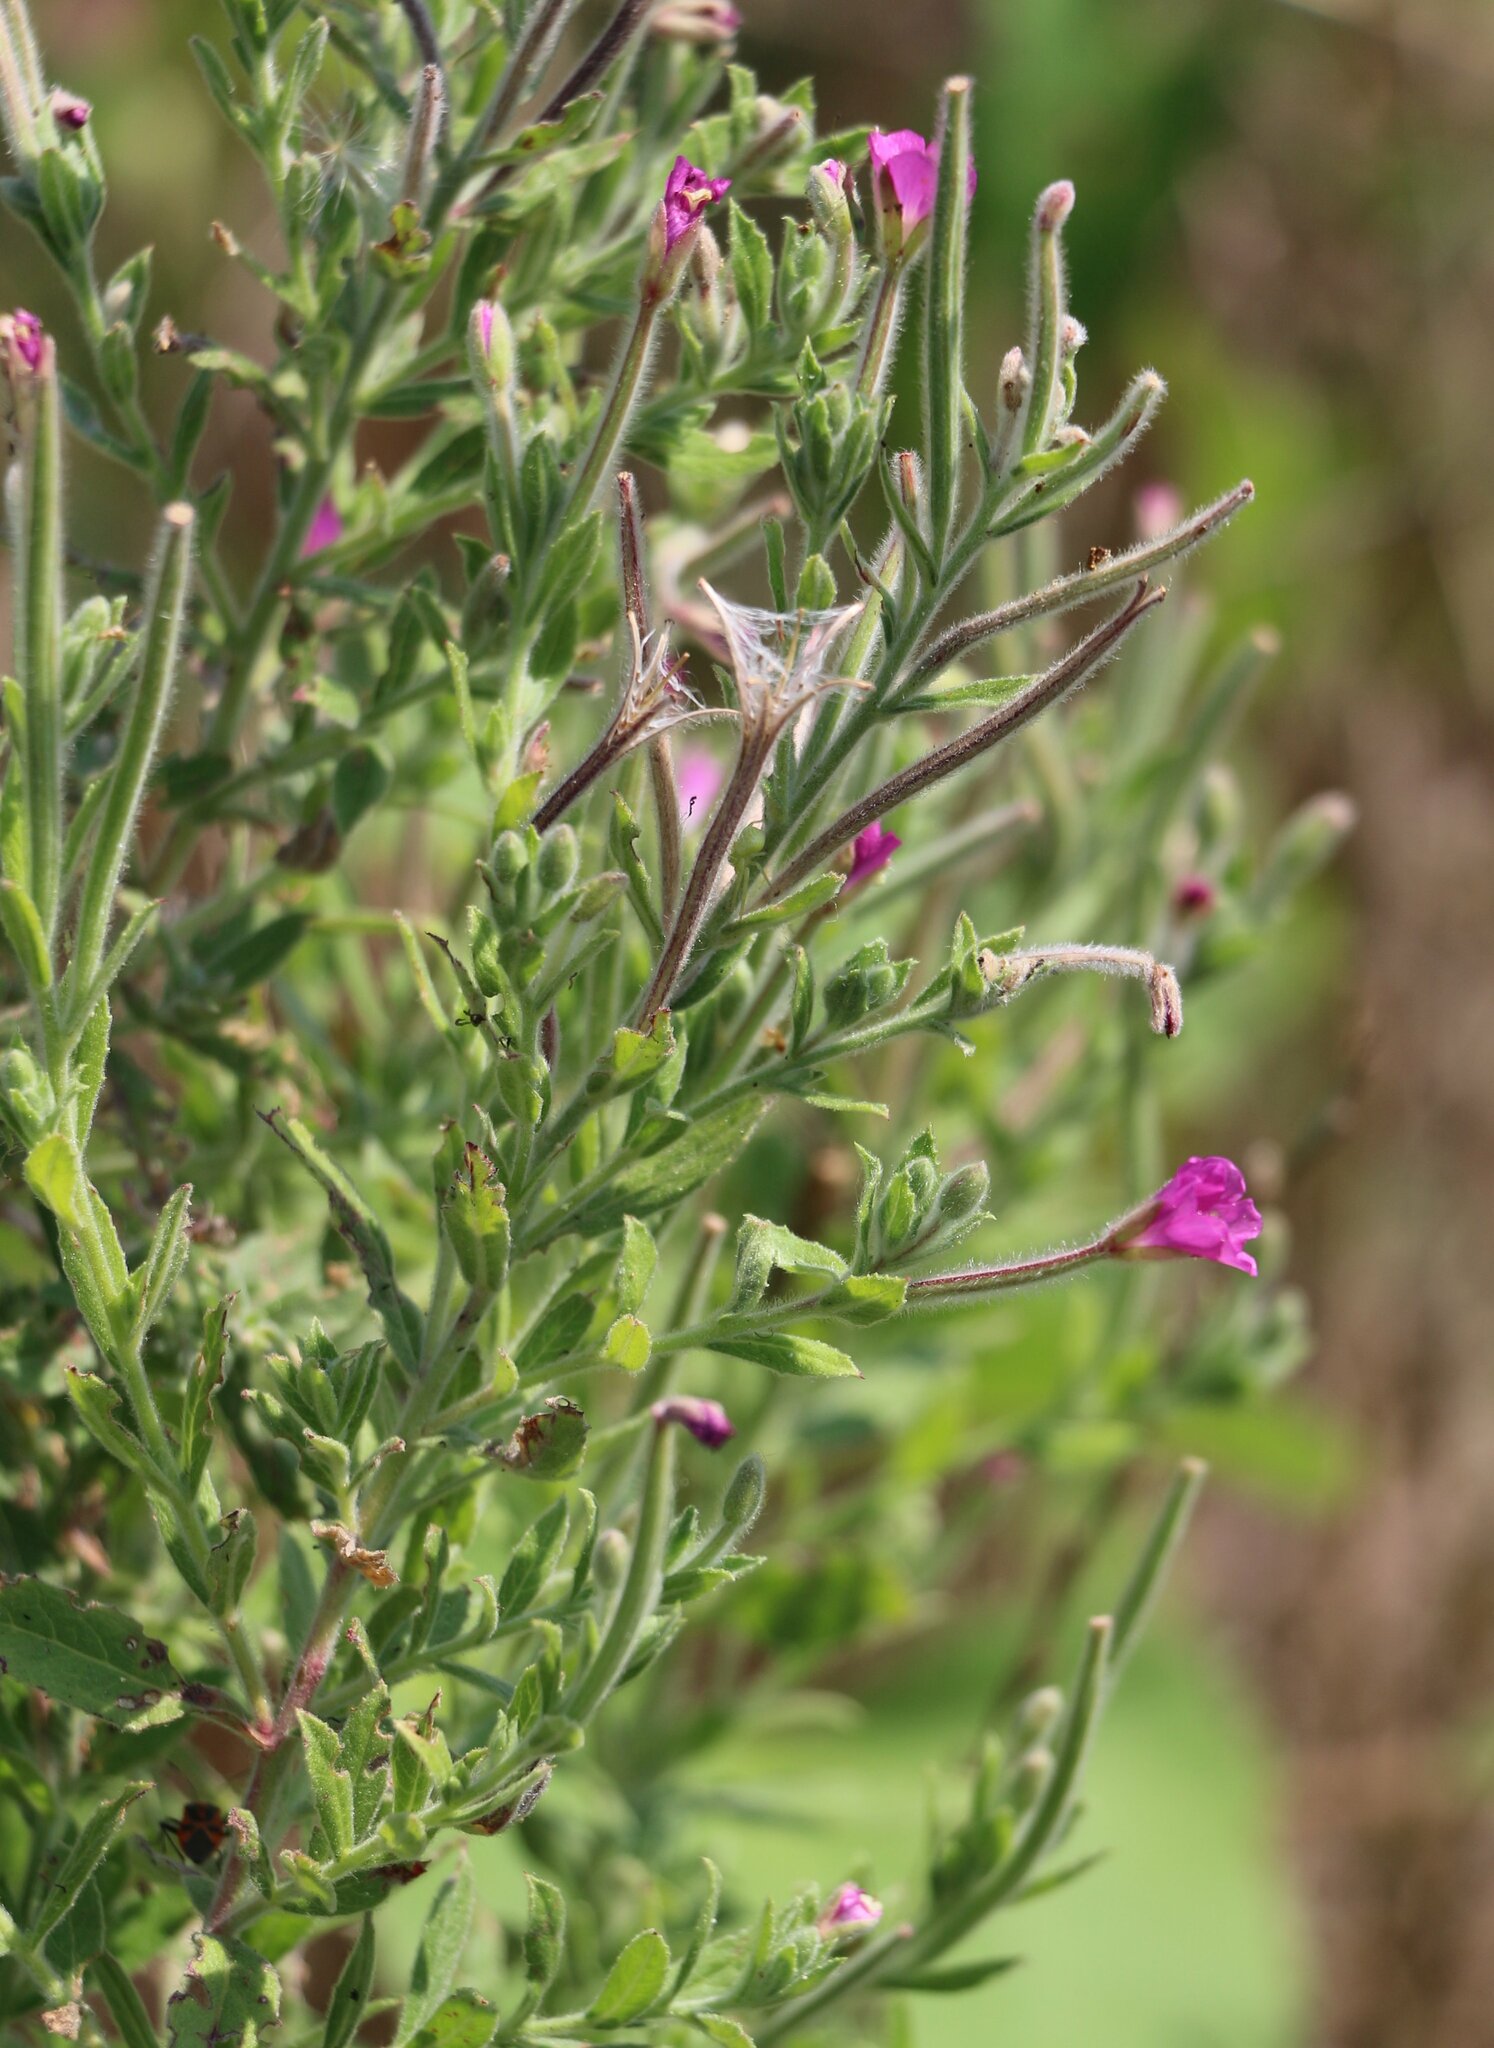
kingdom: Plantae
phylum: Tracheophyta
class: Magnoliopsida
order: Myrtales
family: Onagraceae
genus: Epilobium
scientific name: Epilobium hirsutum
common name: Great willowherb
